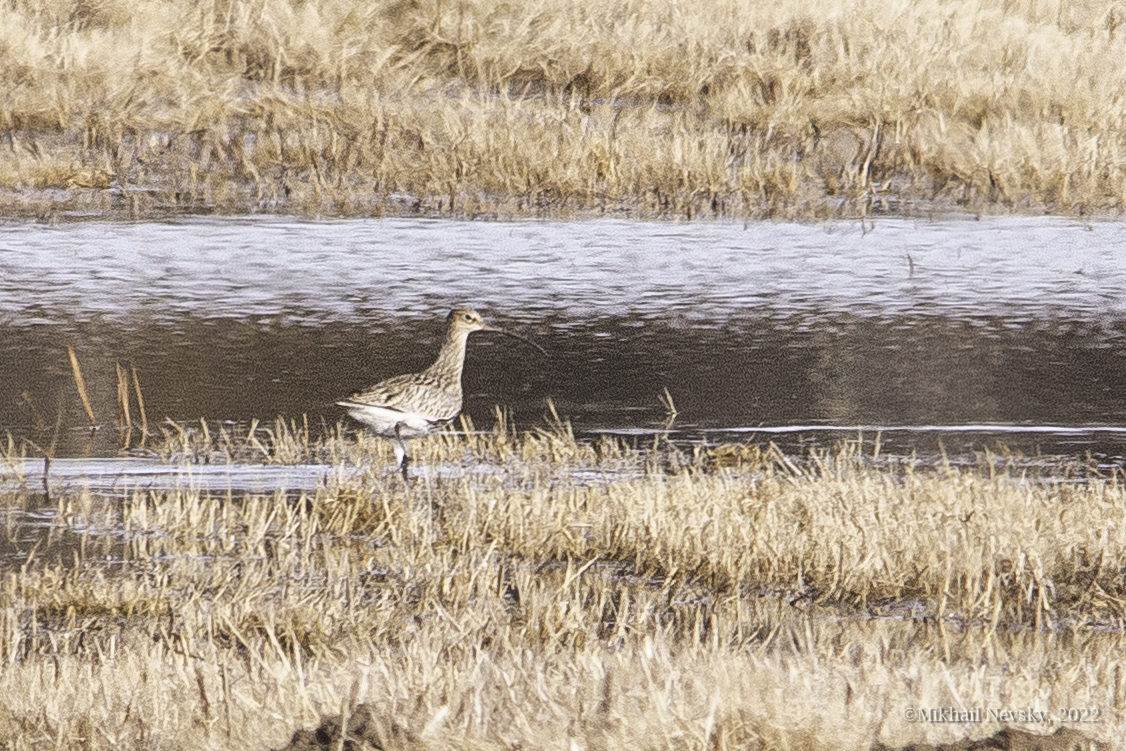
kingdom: Animalia
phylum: Chordata
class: Aves
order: Charadriiformes
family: Scolopacidae
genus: Numenius
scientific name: Numenius arquata
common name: Eurasian curlew
